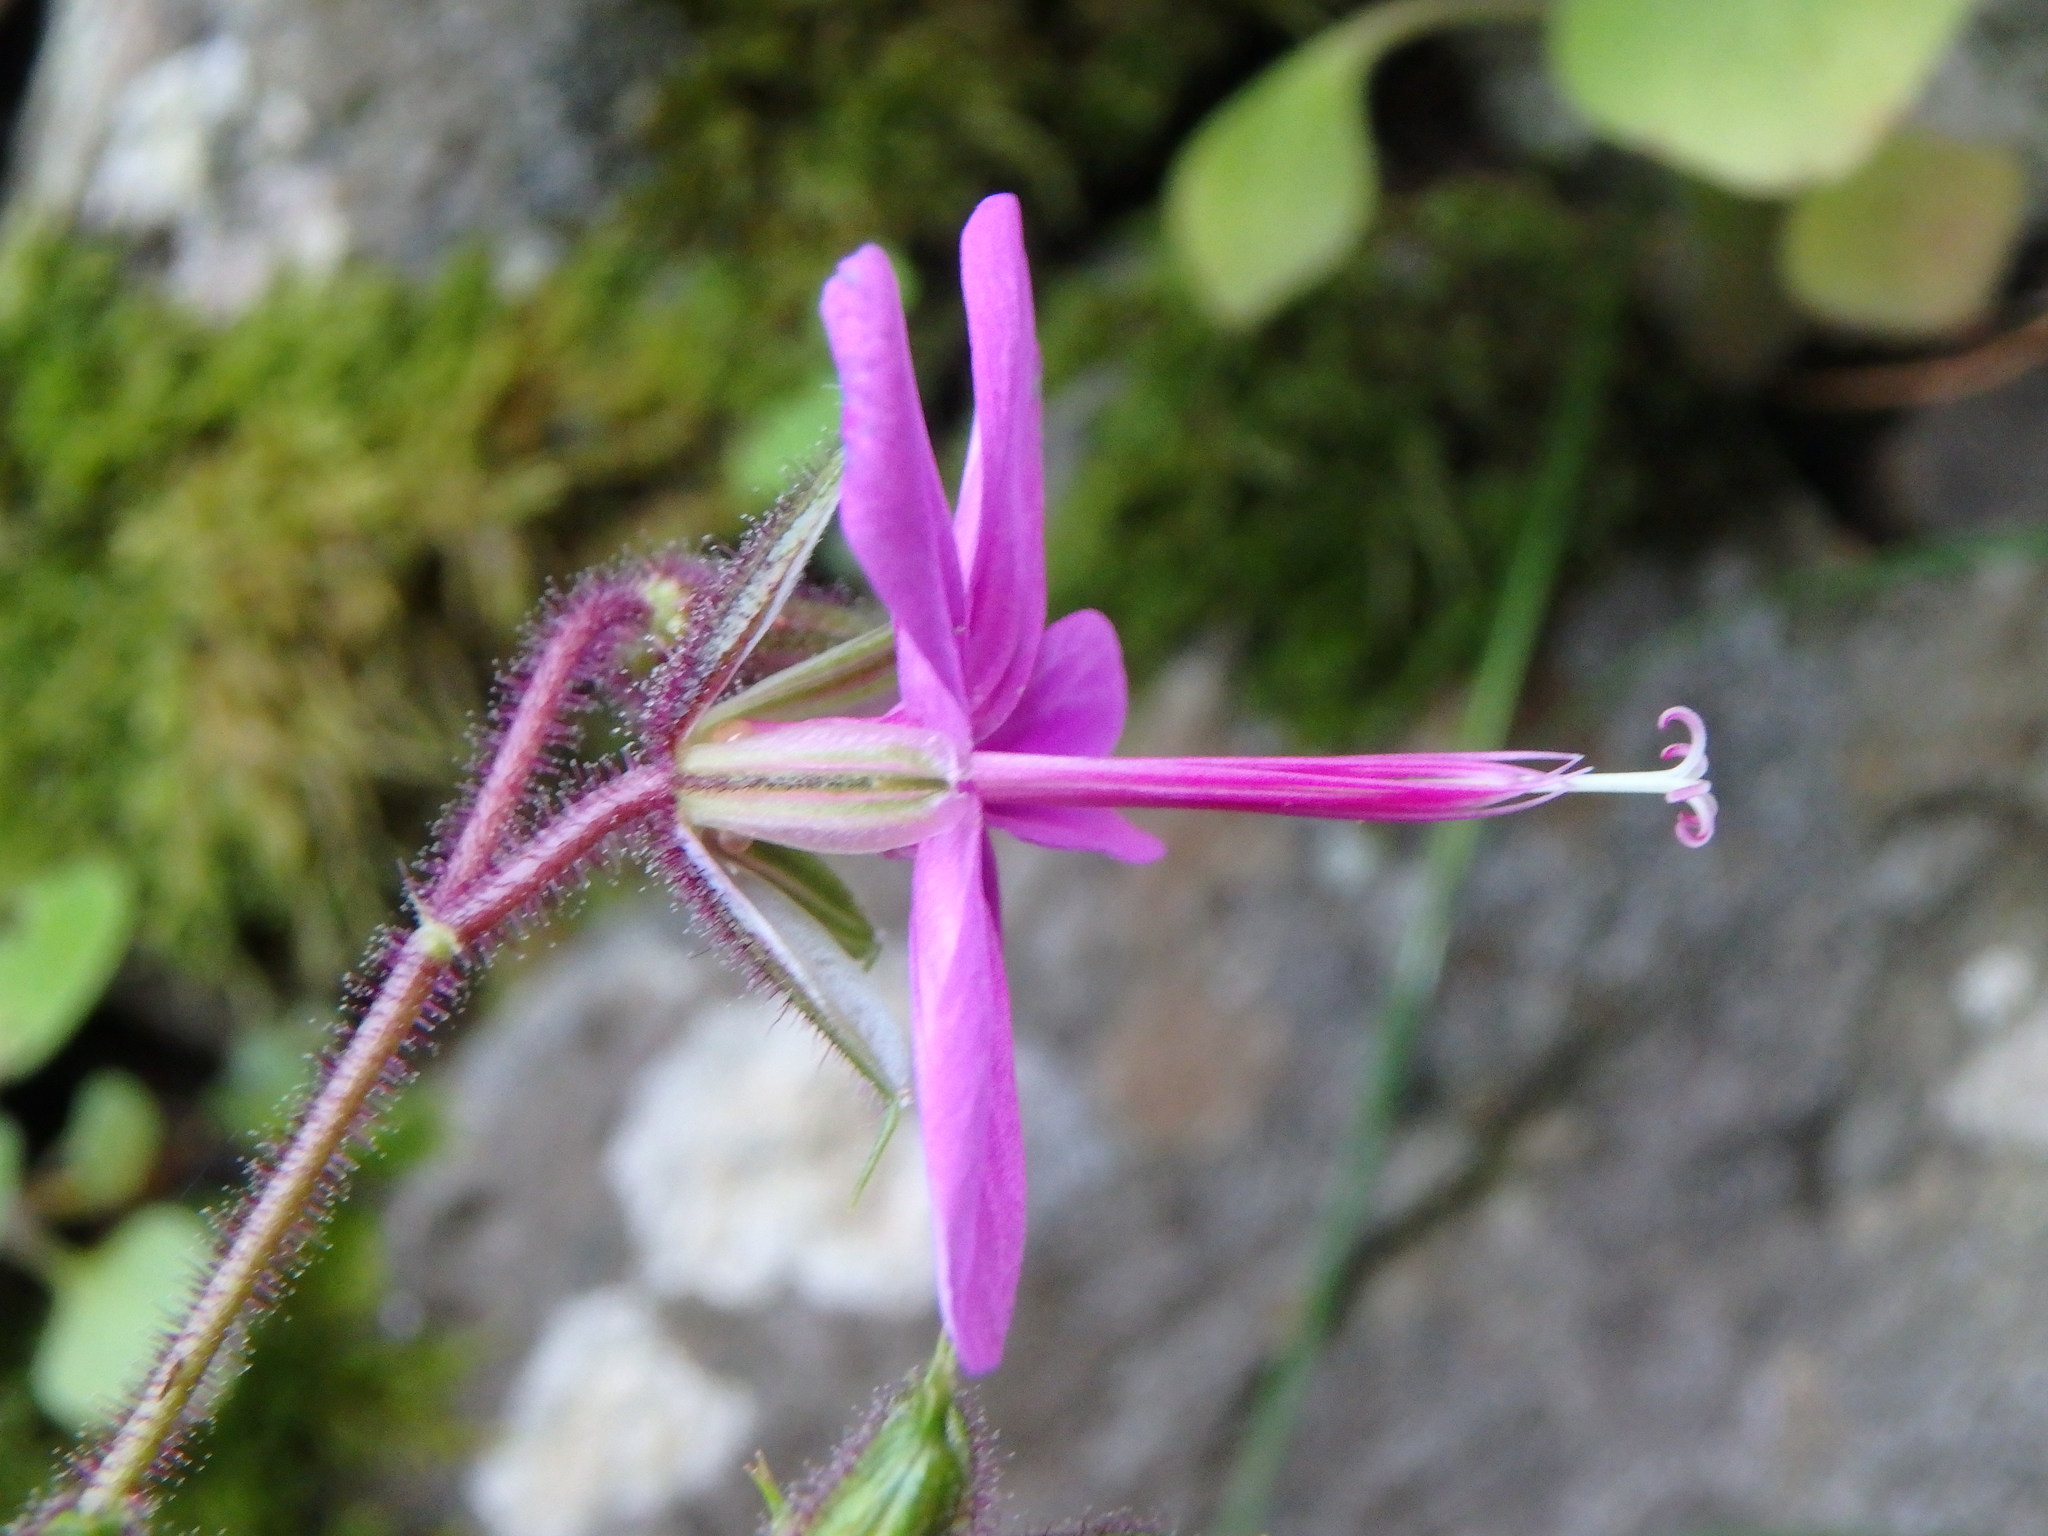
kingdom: Plantae
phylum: Tracheophyta
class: Magnoliopsida
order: Geraniales
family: Geraniaceae
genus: Geranium
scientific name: Geranium reuteri
